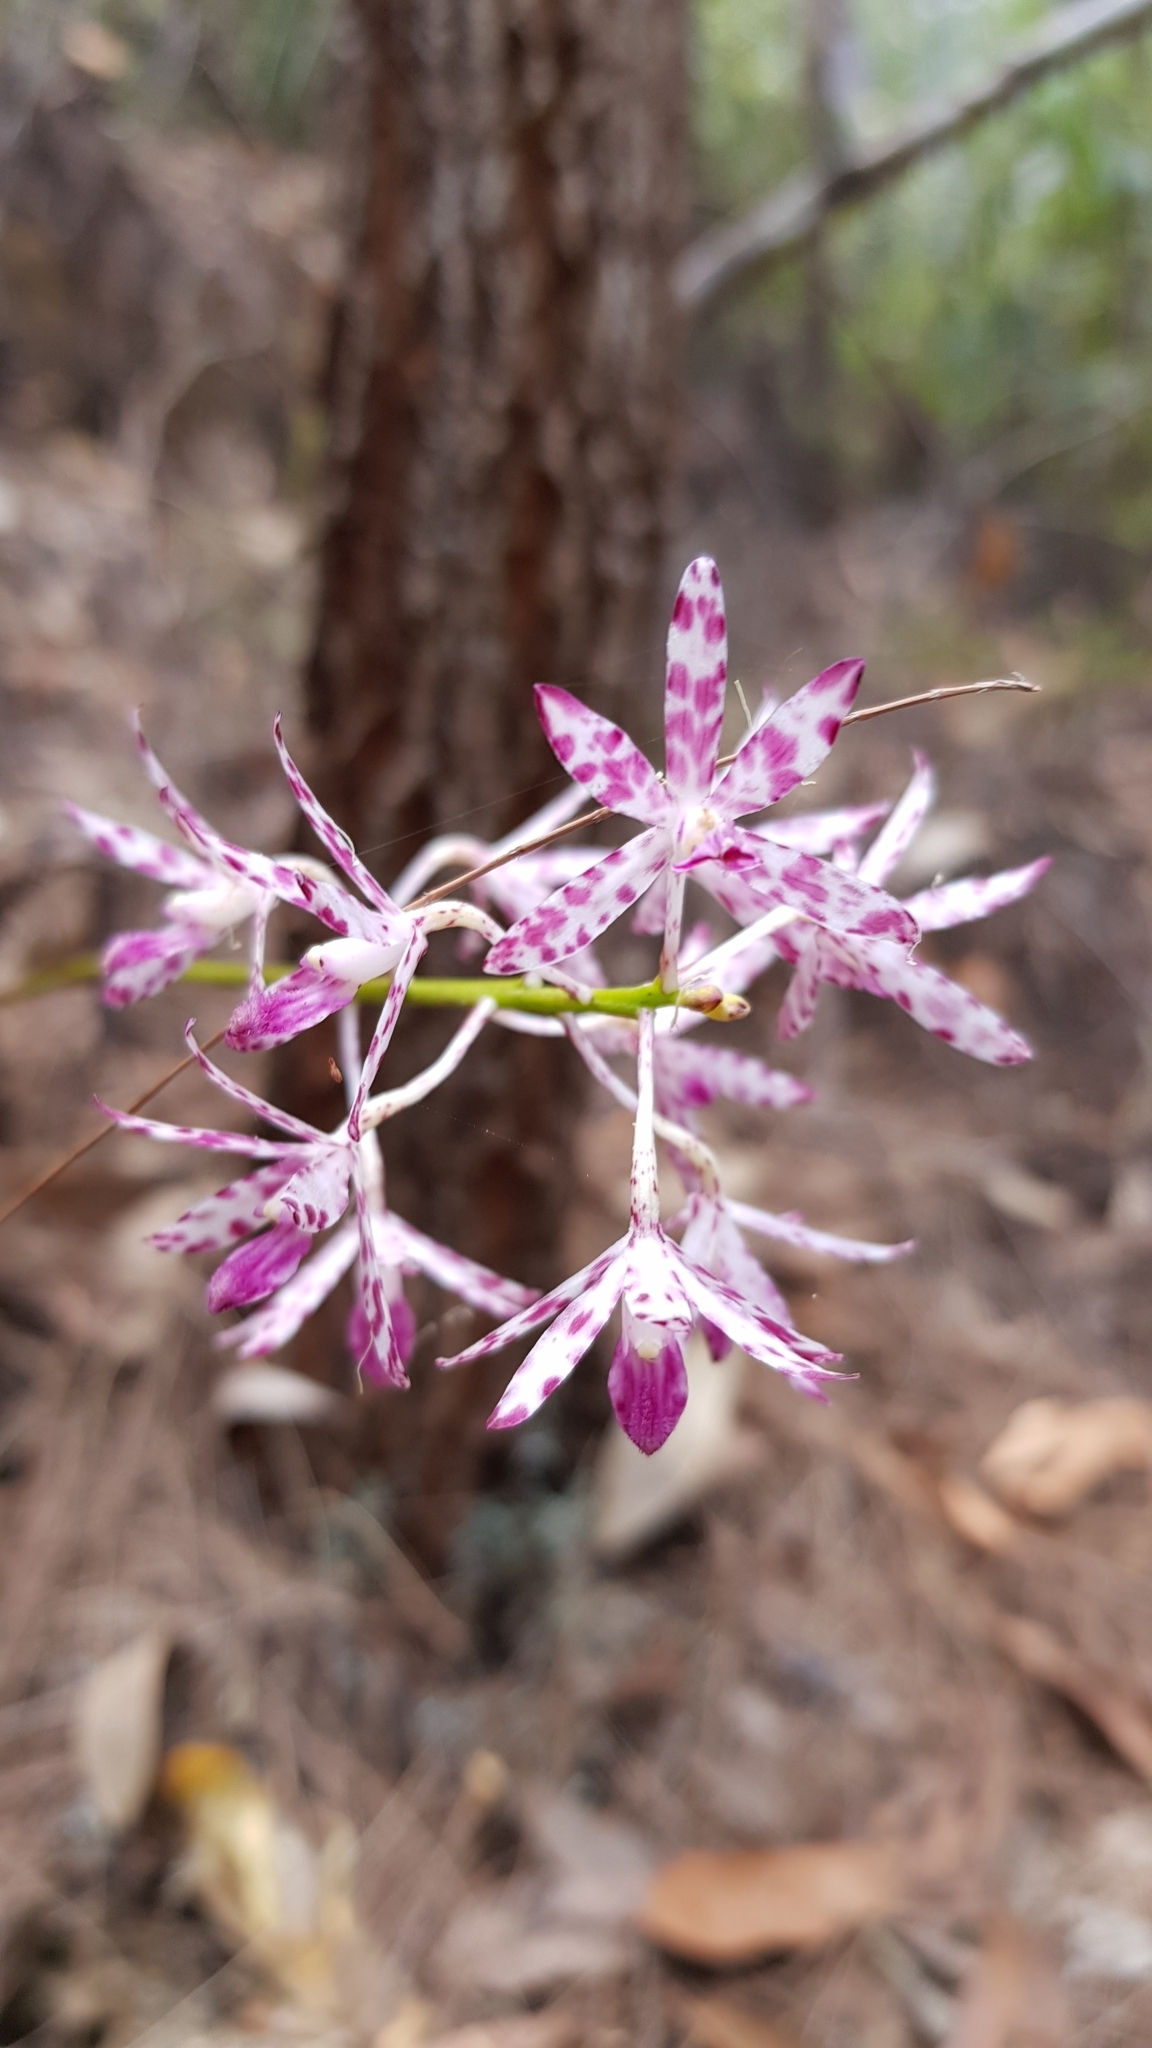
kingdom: Plantae
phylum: Tracheophyta
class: Liliopsida
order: Asparagales
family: Orchidaceae
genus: Dipodium
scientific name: Dipodium variegatum
